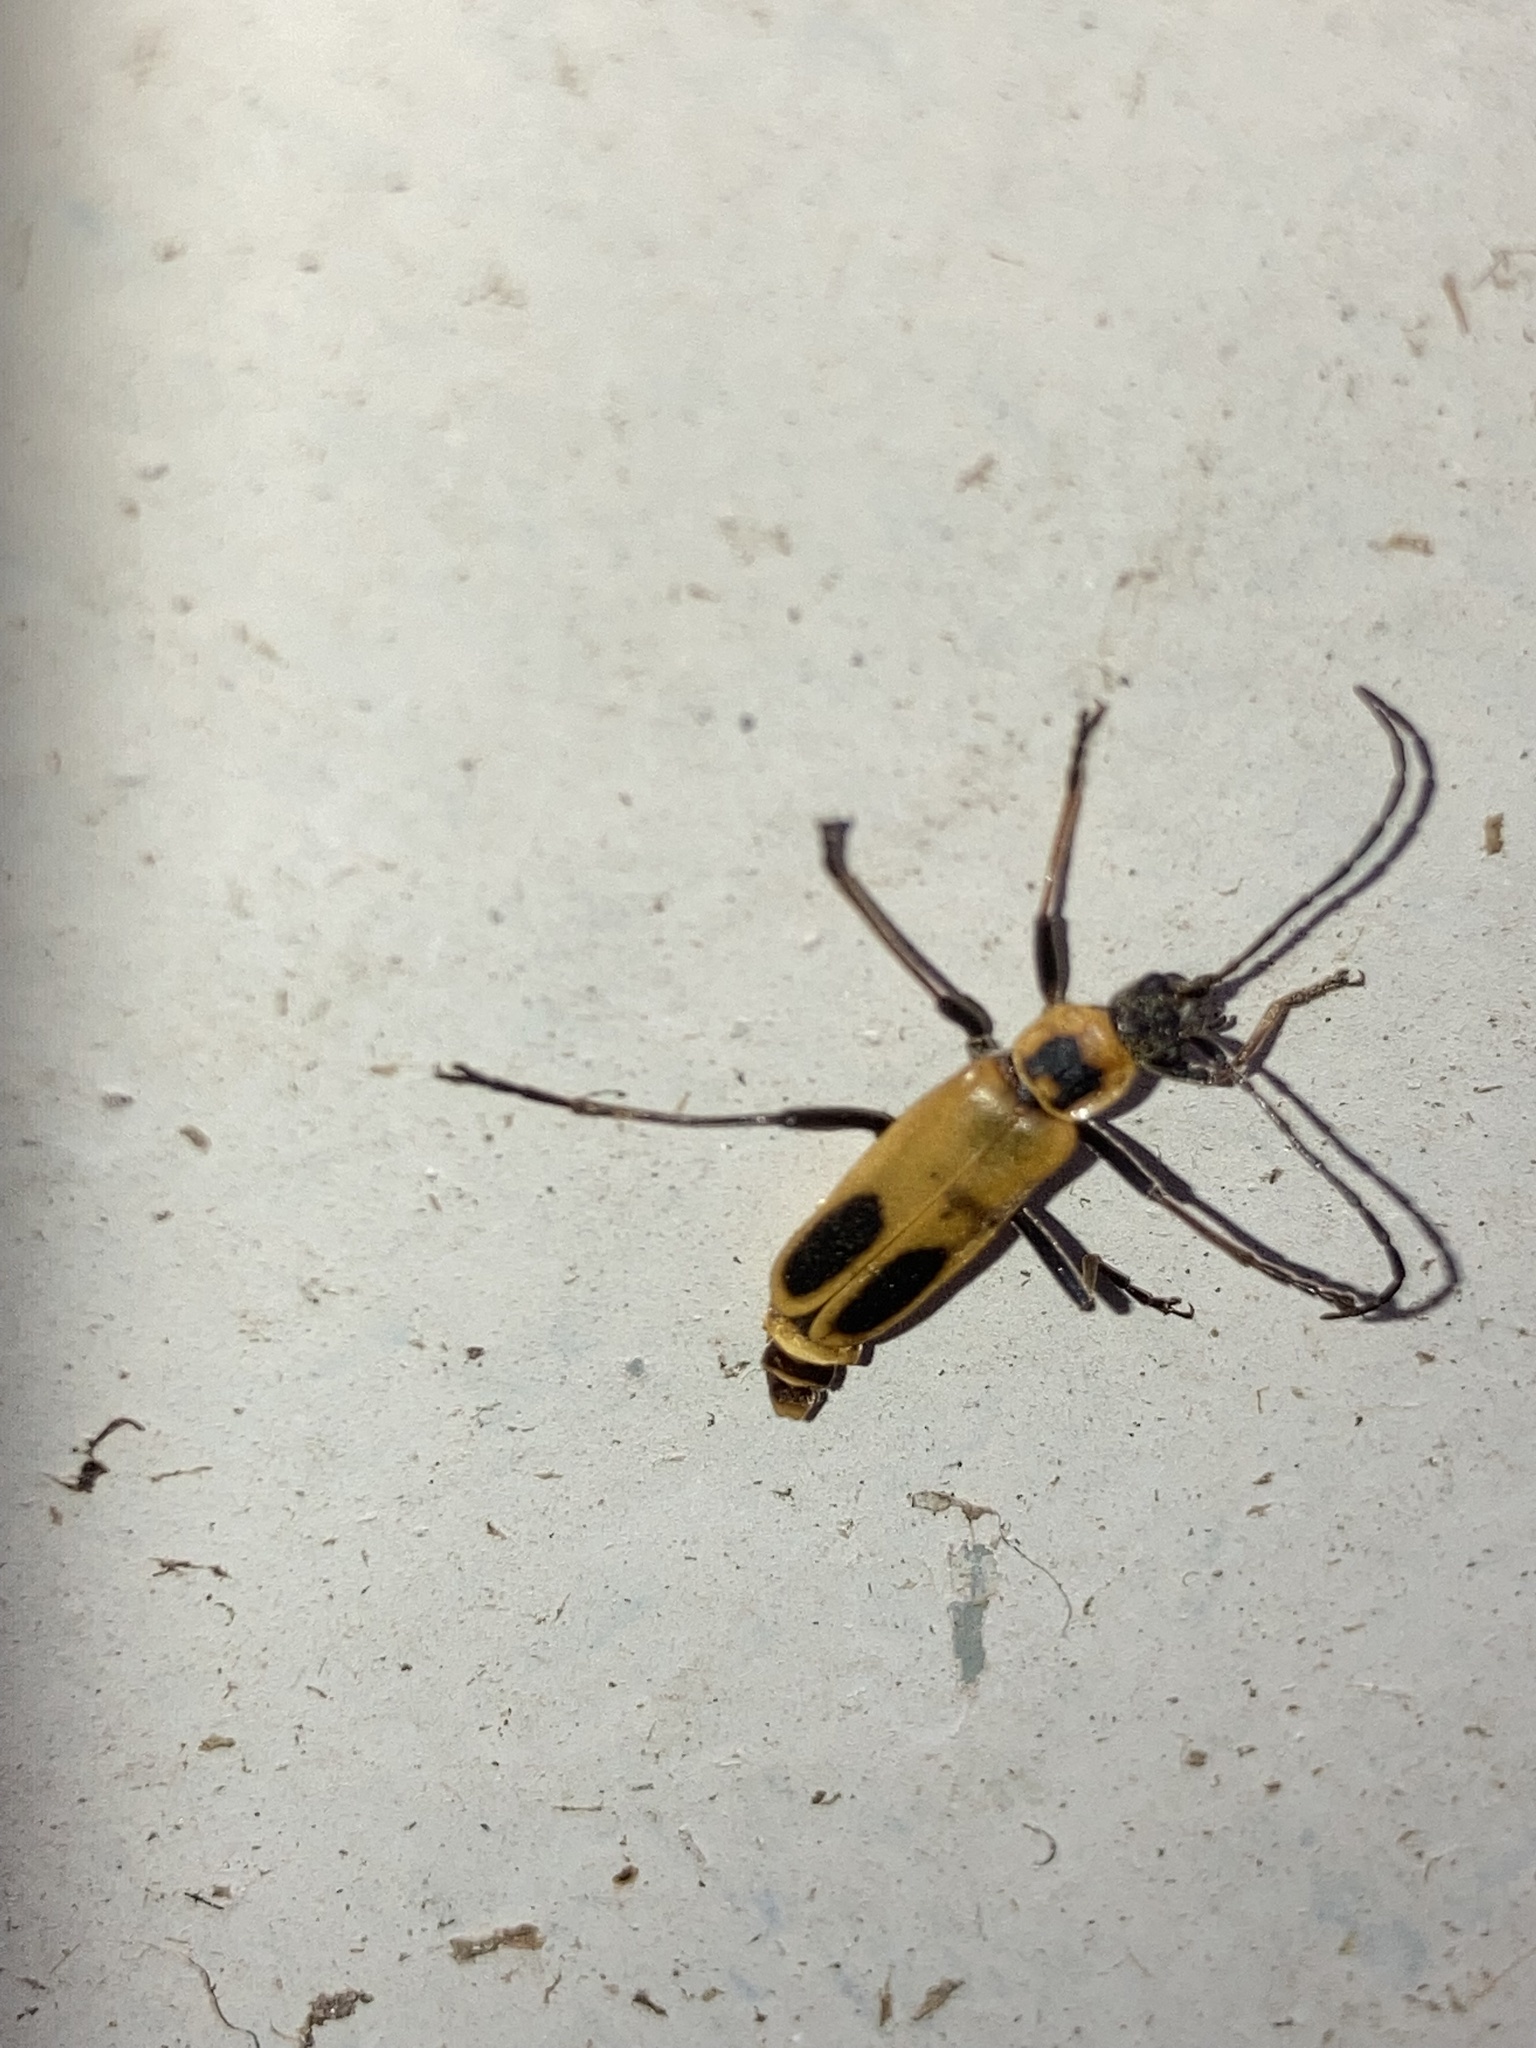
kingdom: Animalia
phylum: Arthropoda
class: Insecta
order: Coleoptera
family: Cantharidae
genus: Chauliognathus
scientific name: Chauliognathus pensylvanicus
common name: Goldenrod soldier beetle
